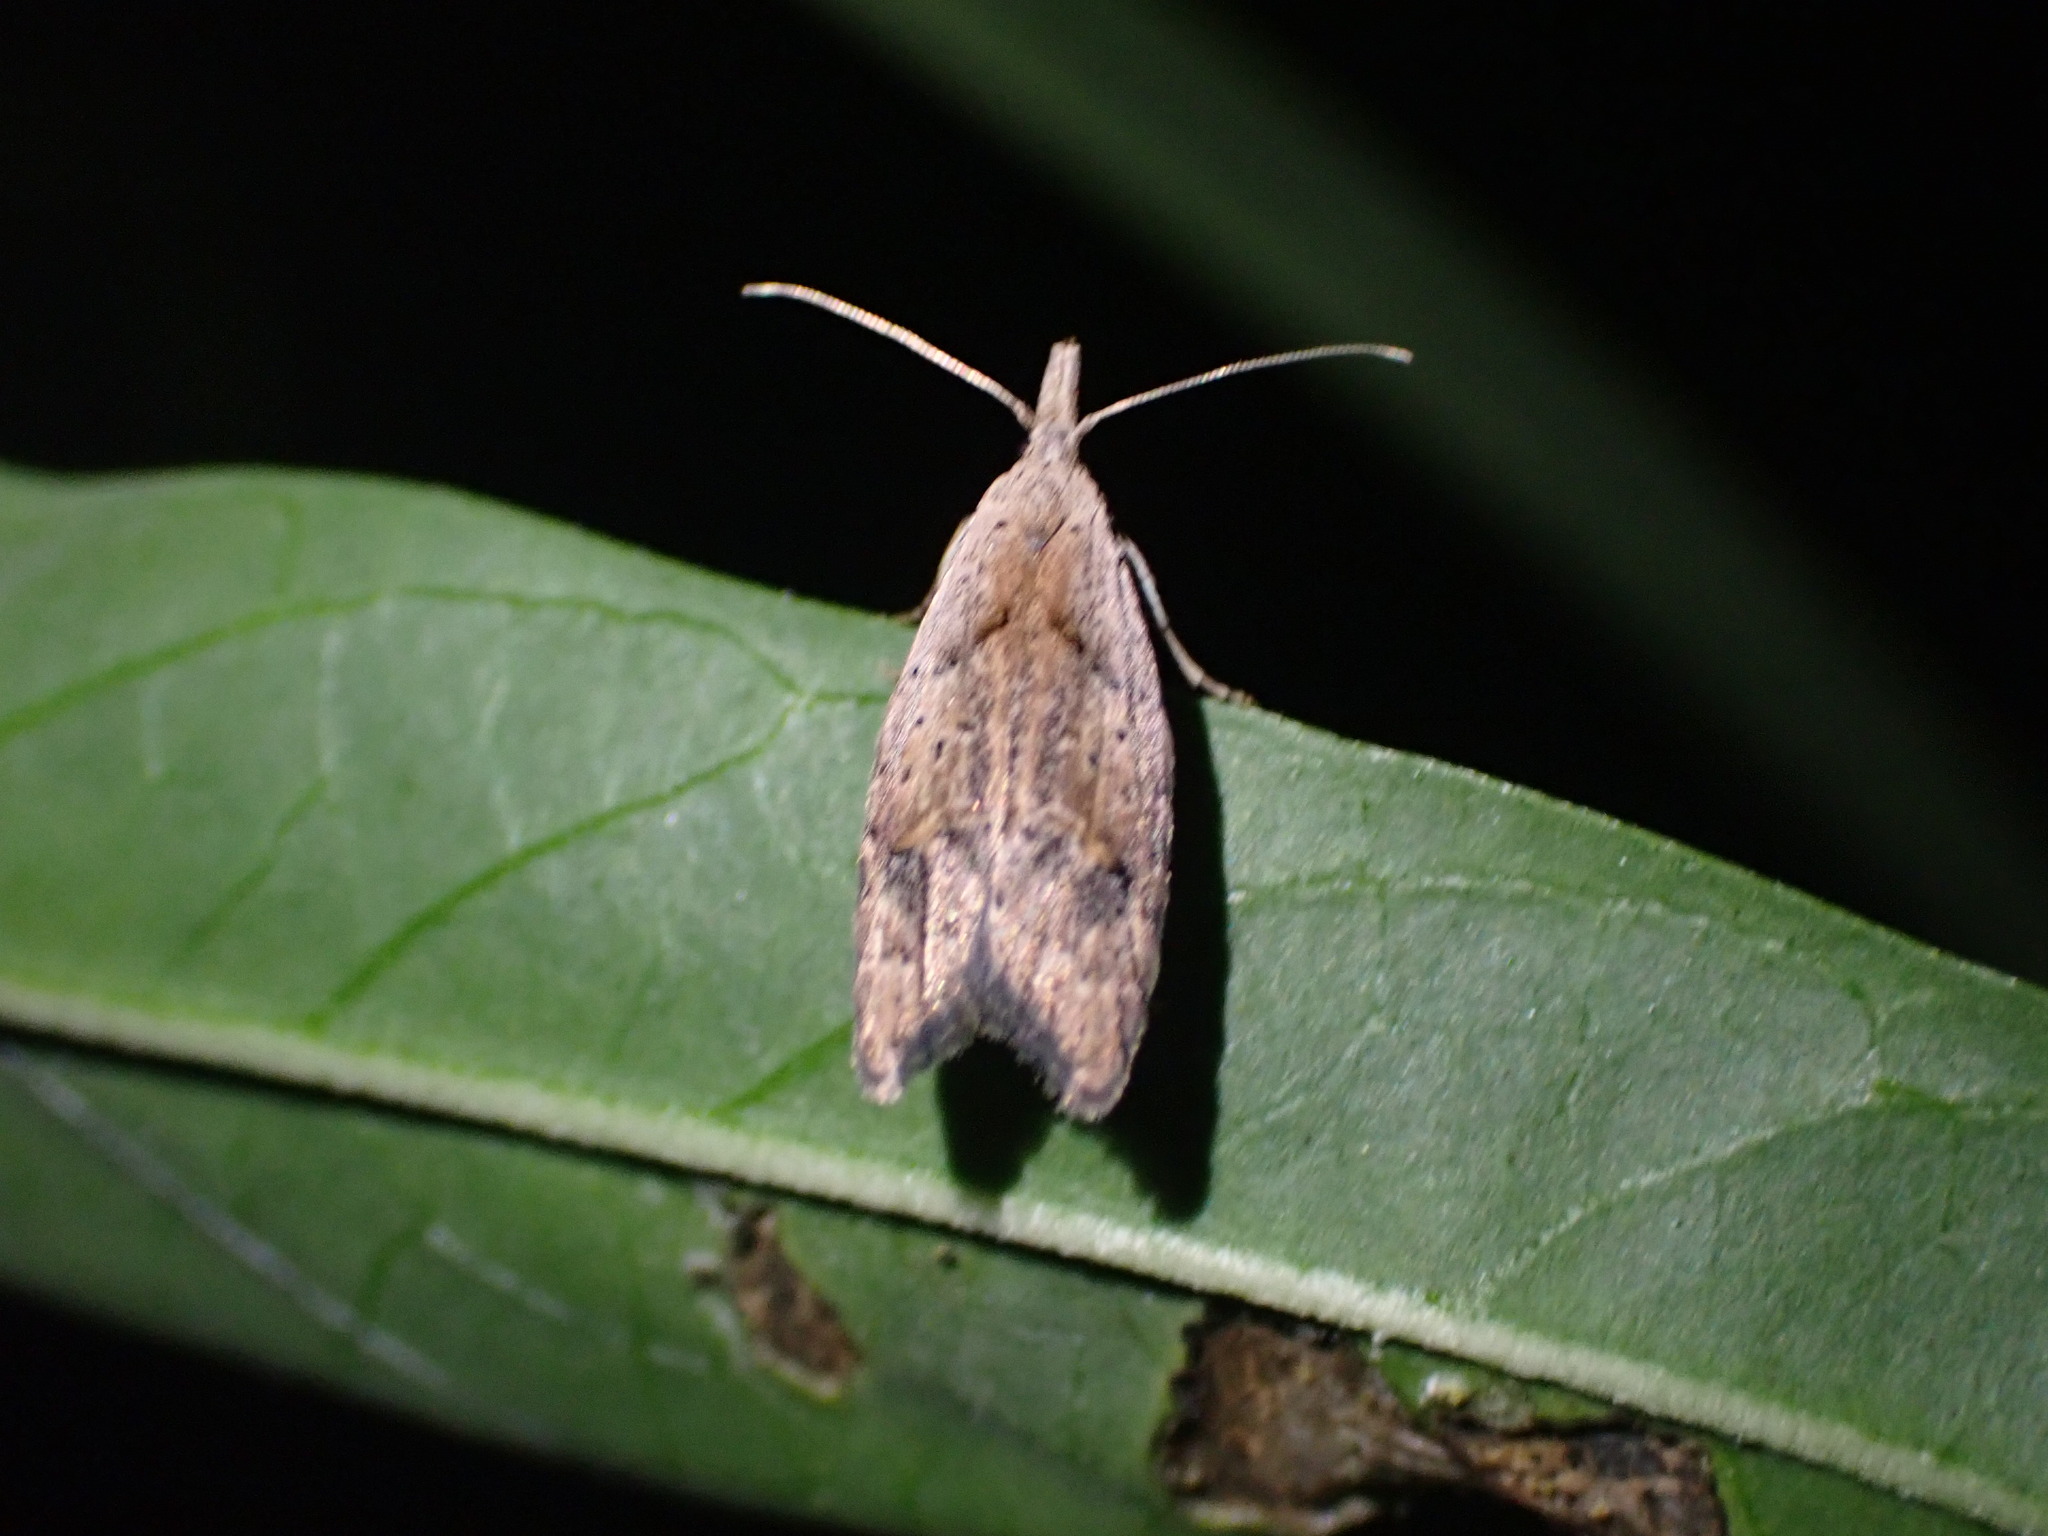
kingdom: Animalia
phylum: Arthropoda
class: Insecta
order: Lepidoptera
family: Carposinidae
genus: Carposina
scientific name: Carposina rubophaga
